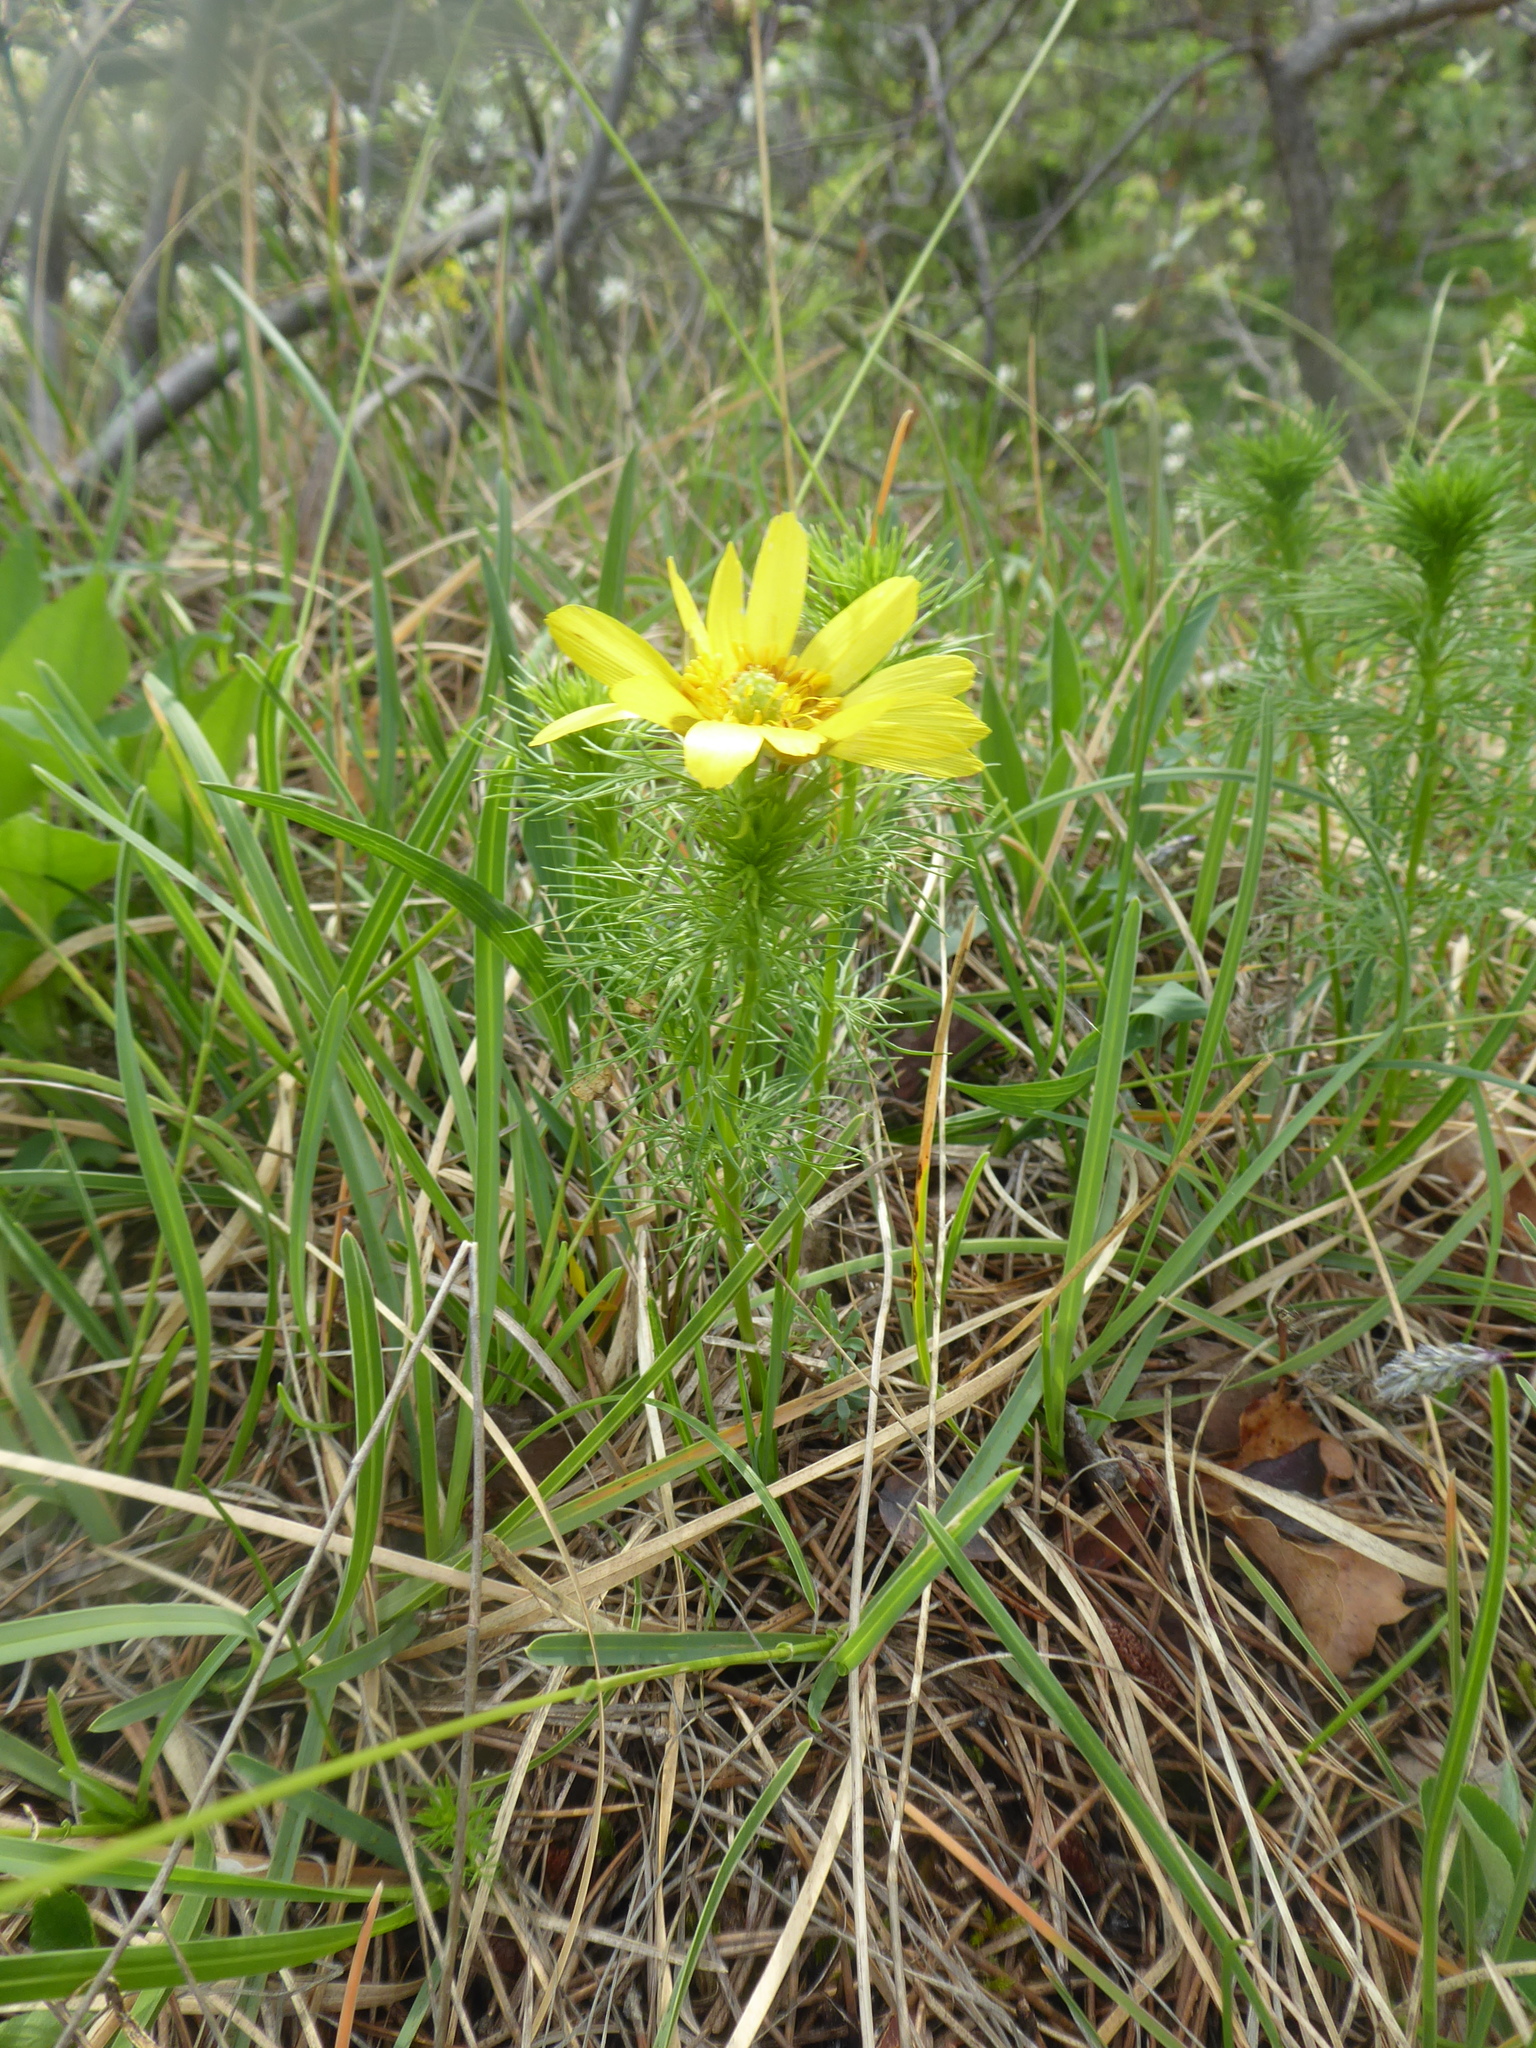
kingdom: Plantae
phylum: Tracheophyta
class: Magnoliopsida
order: Ranunculales
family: Ranunculaceae
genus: Adonis
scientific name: Adonis vernalis
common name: Yellow pheasants-eye
